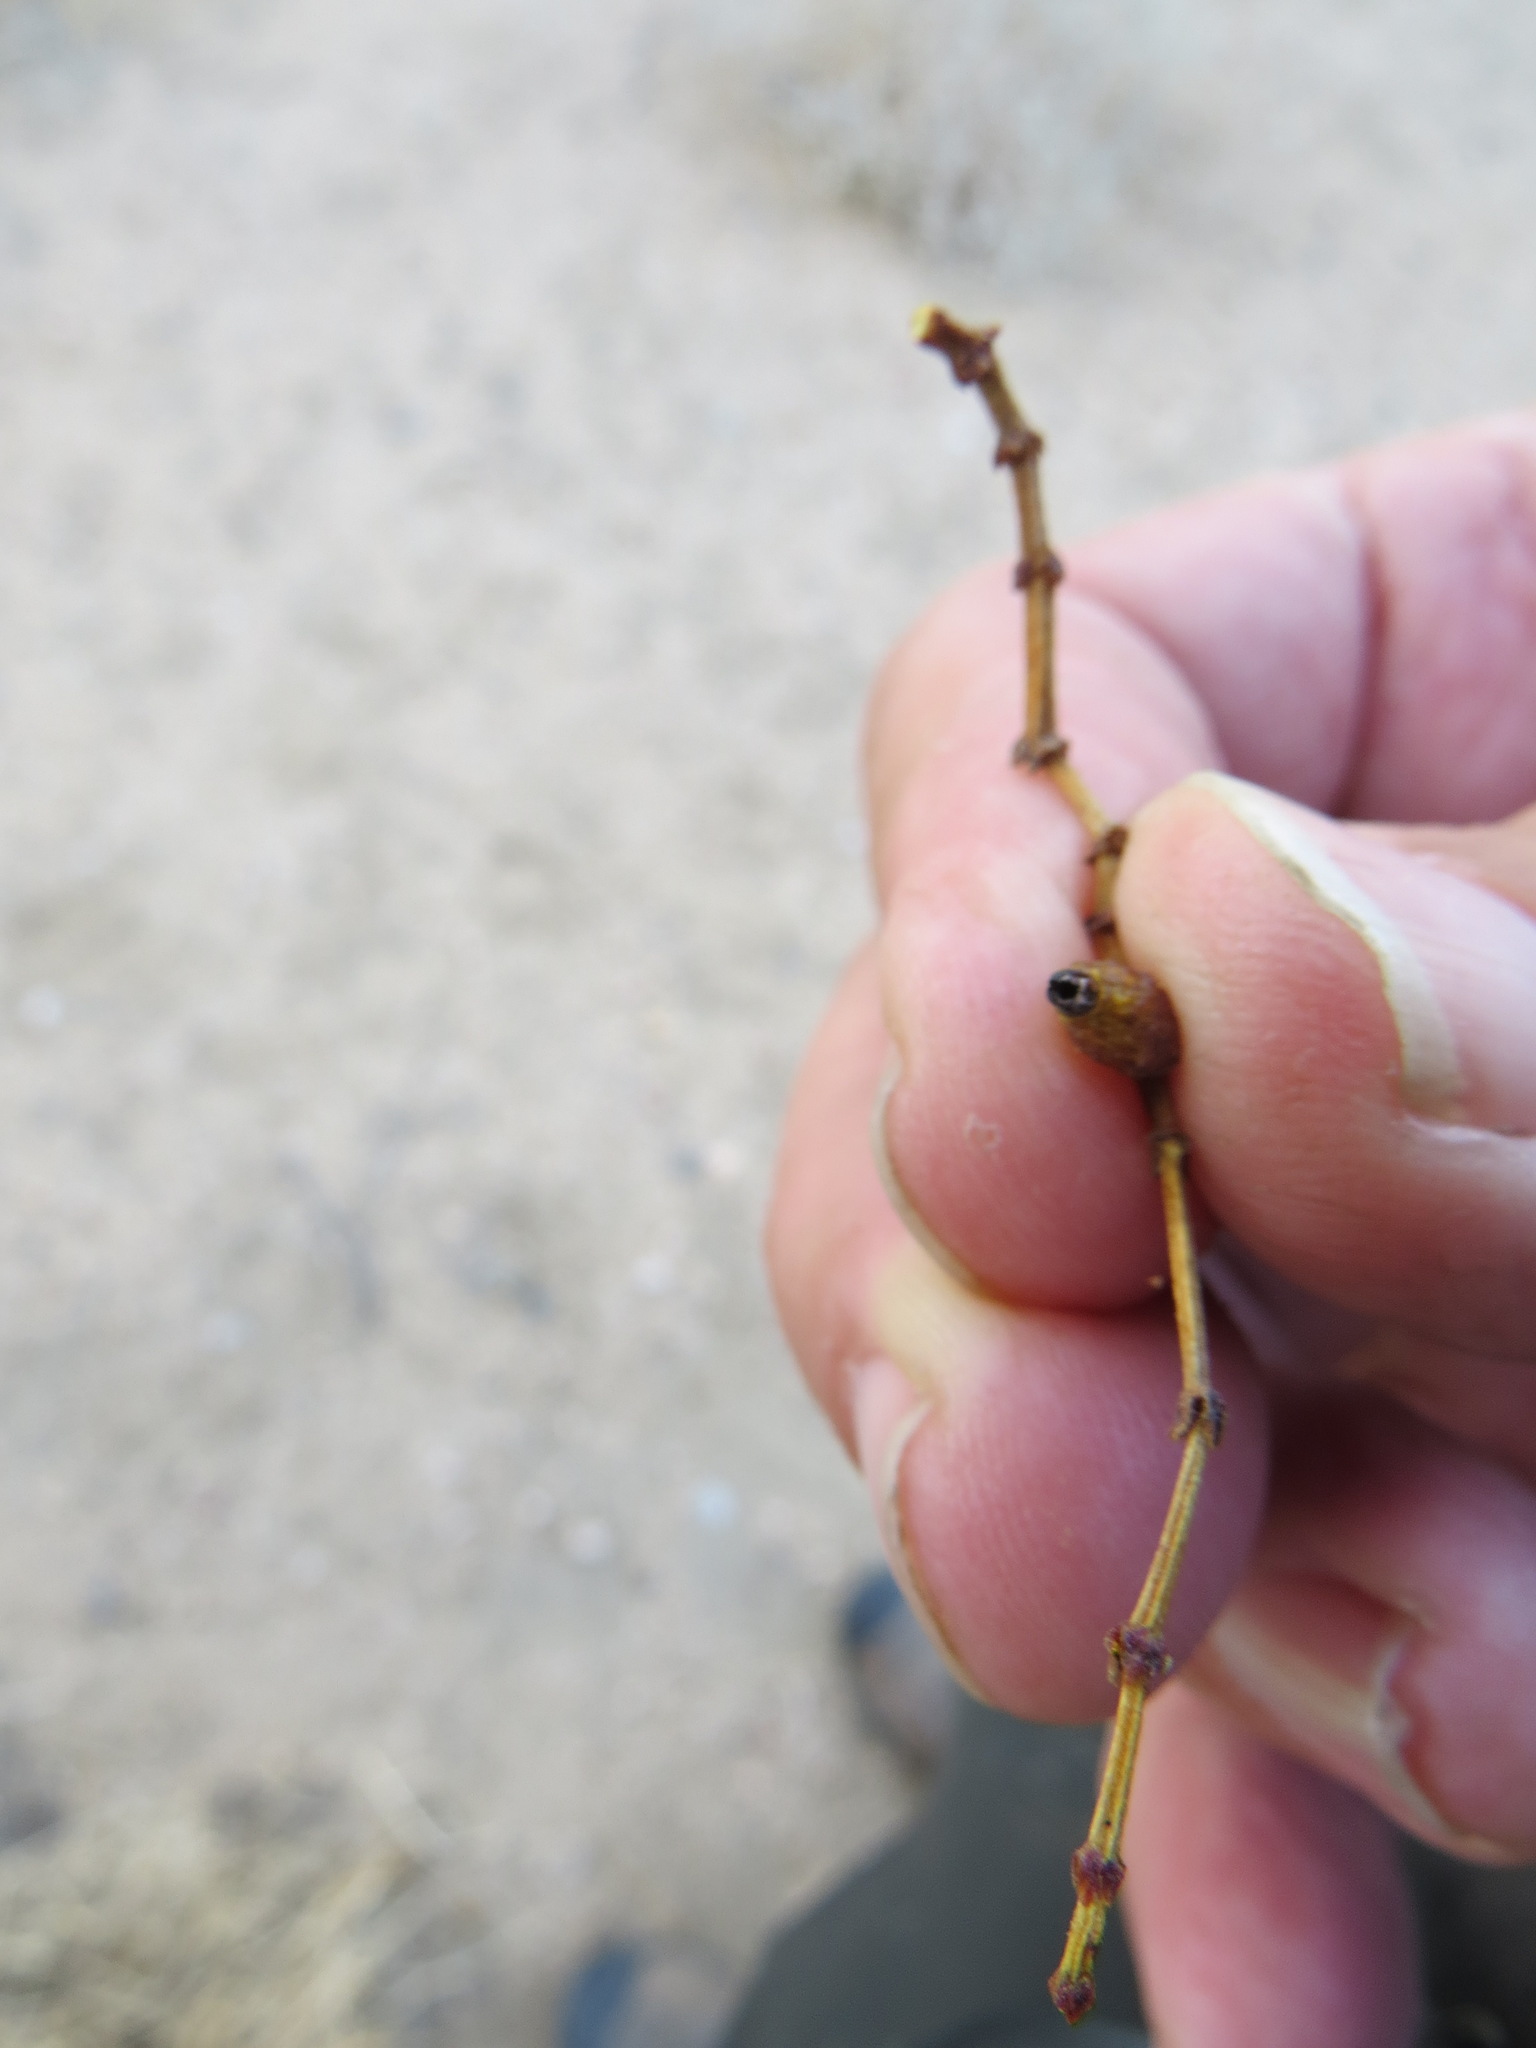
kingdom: Animalia
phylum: Arthropoda
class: Insecta
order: Diptera
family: Cecidomyiidae
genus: Asphondylia
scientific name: Asphondylia resinosa
